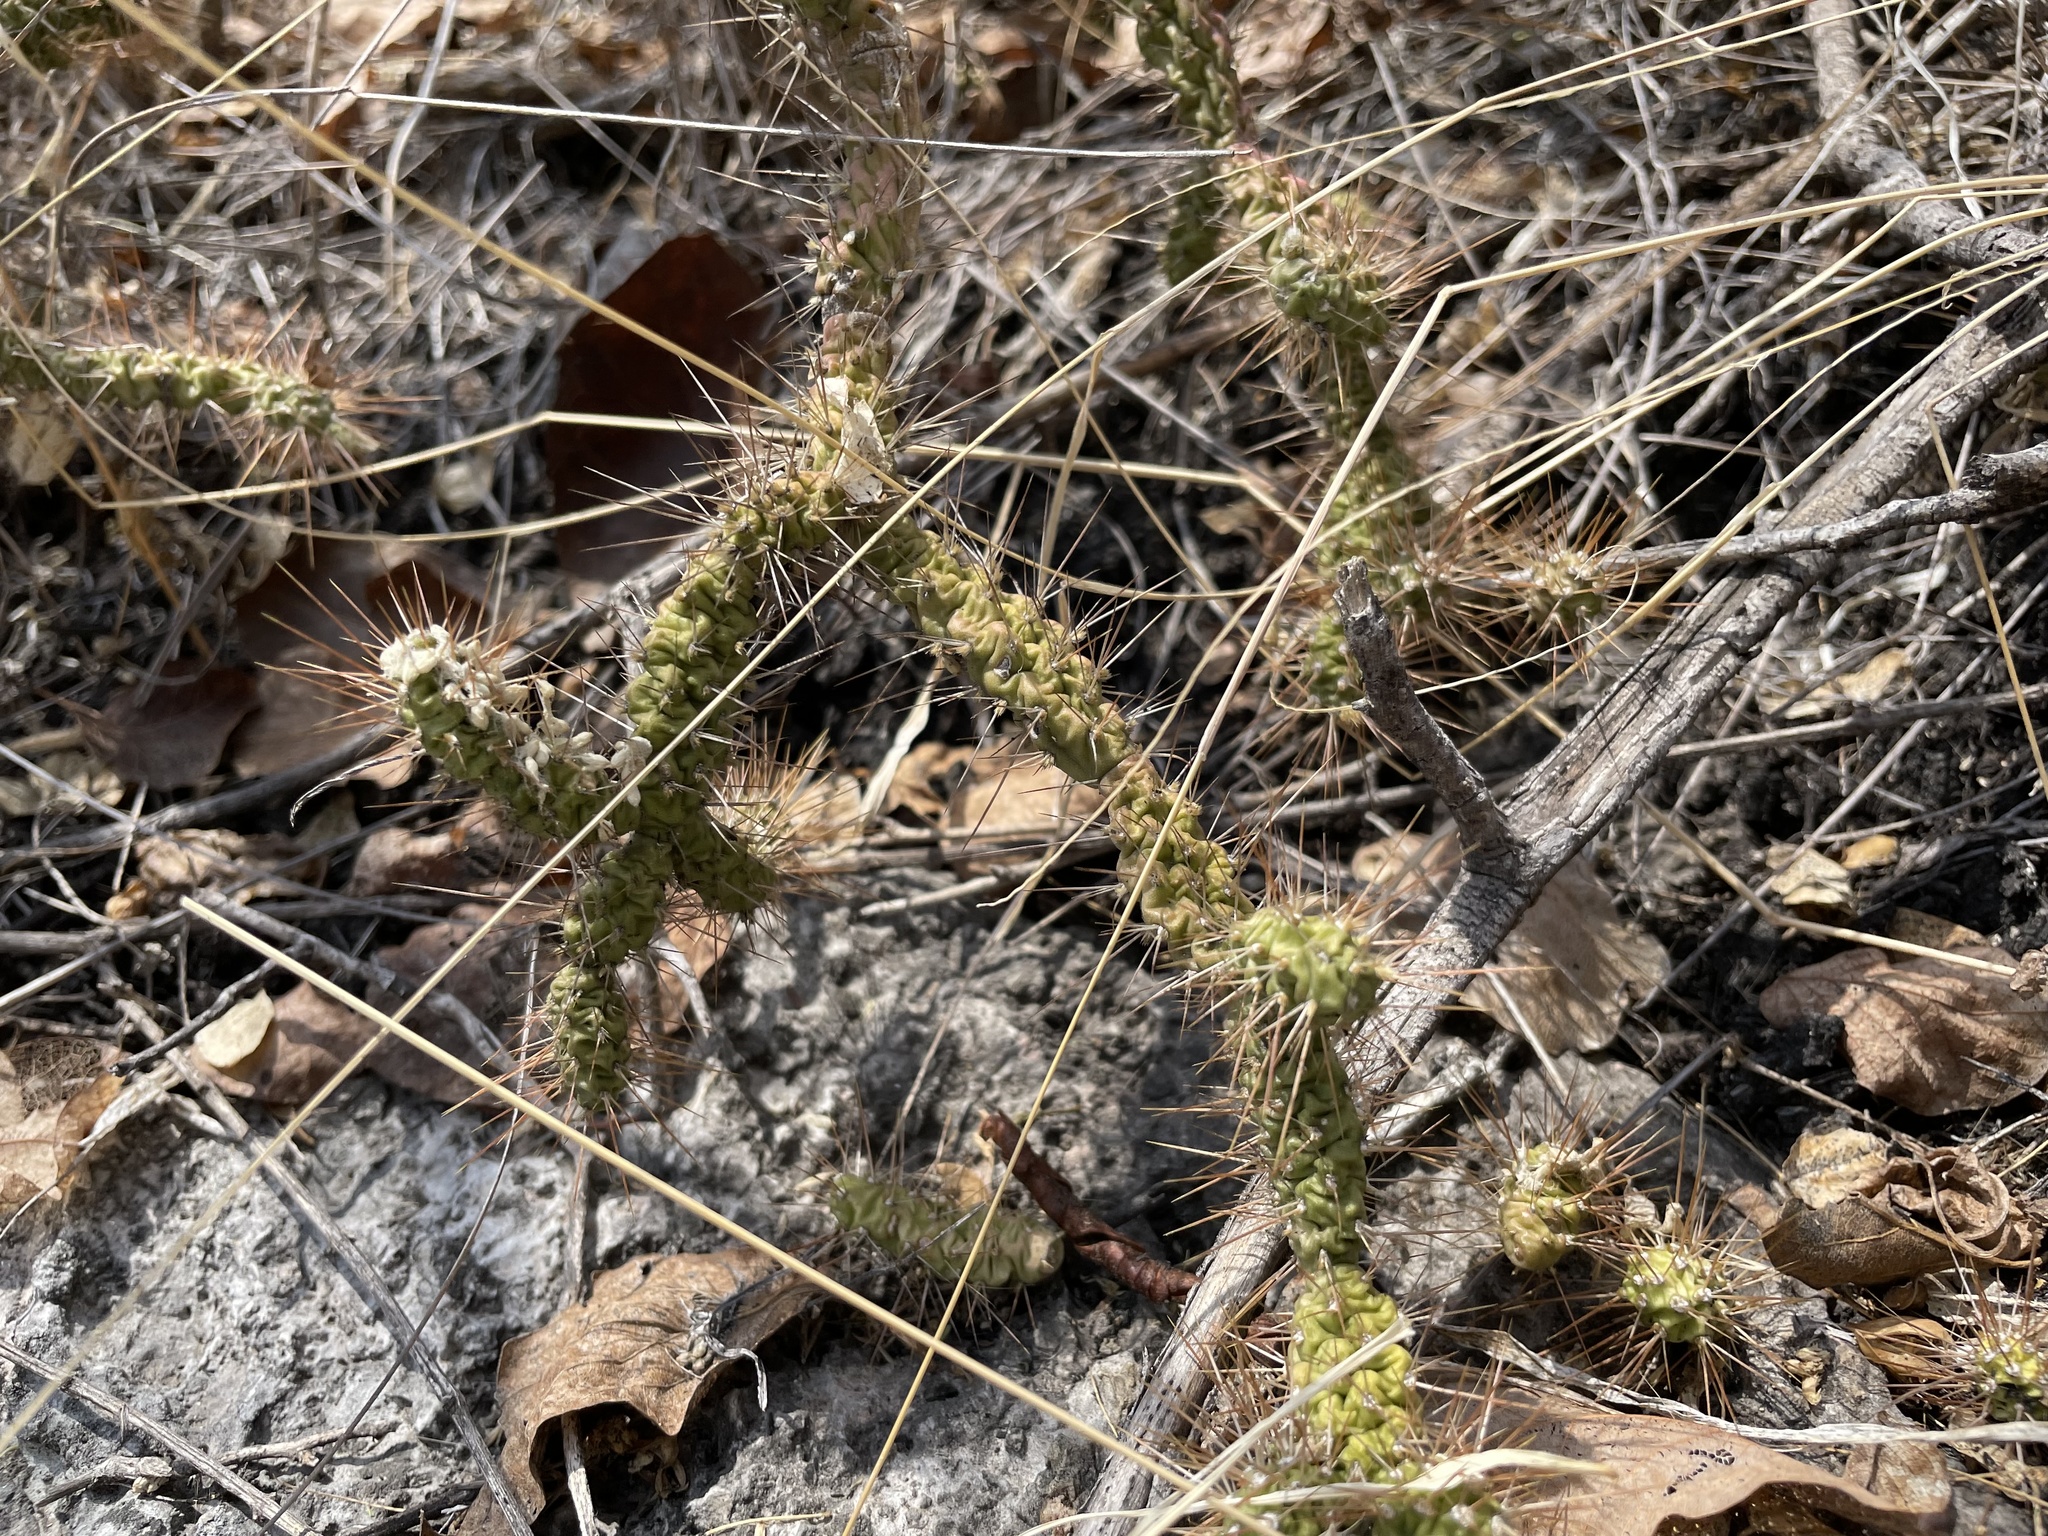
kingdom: Plantae
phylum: Tracheophyta
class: Magnoliopsida
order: Caryophyllales
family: Cactaceae
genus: Opuntia
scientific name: Opuntia pubescens
